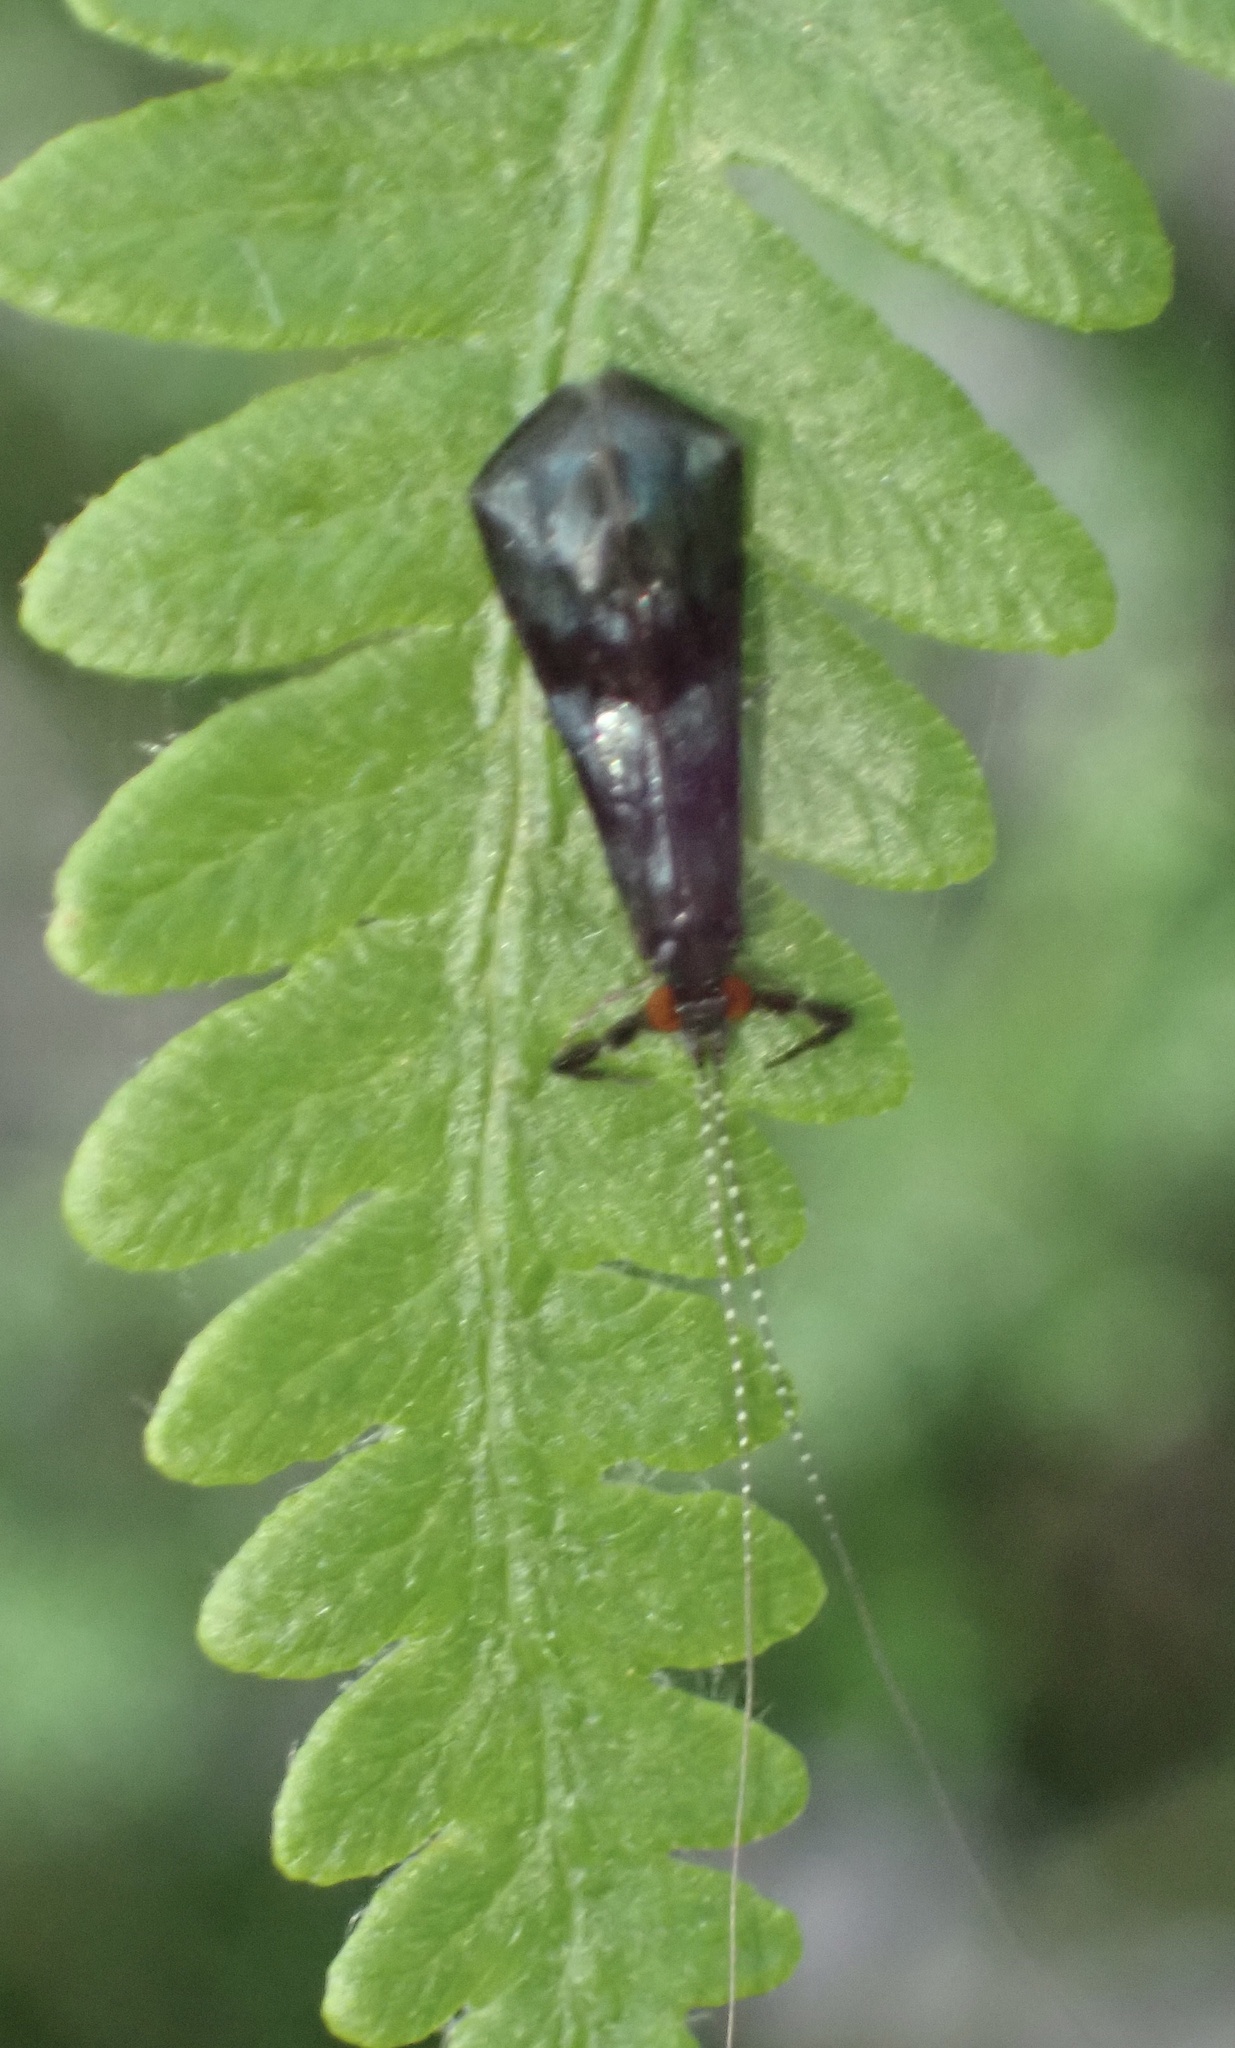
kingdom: Animalia
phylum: Arthropoda
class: Insecta
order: Trichoptera
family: Leptoceridae
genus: Mystacides
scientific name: Mystacides azureus
